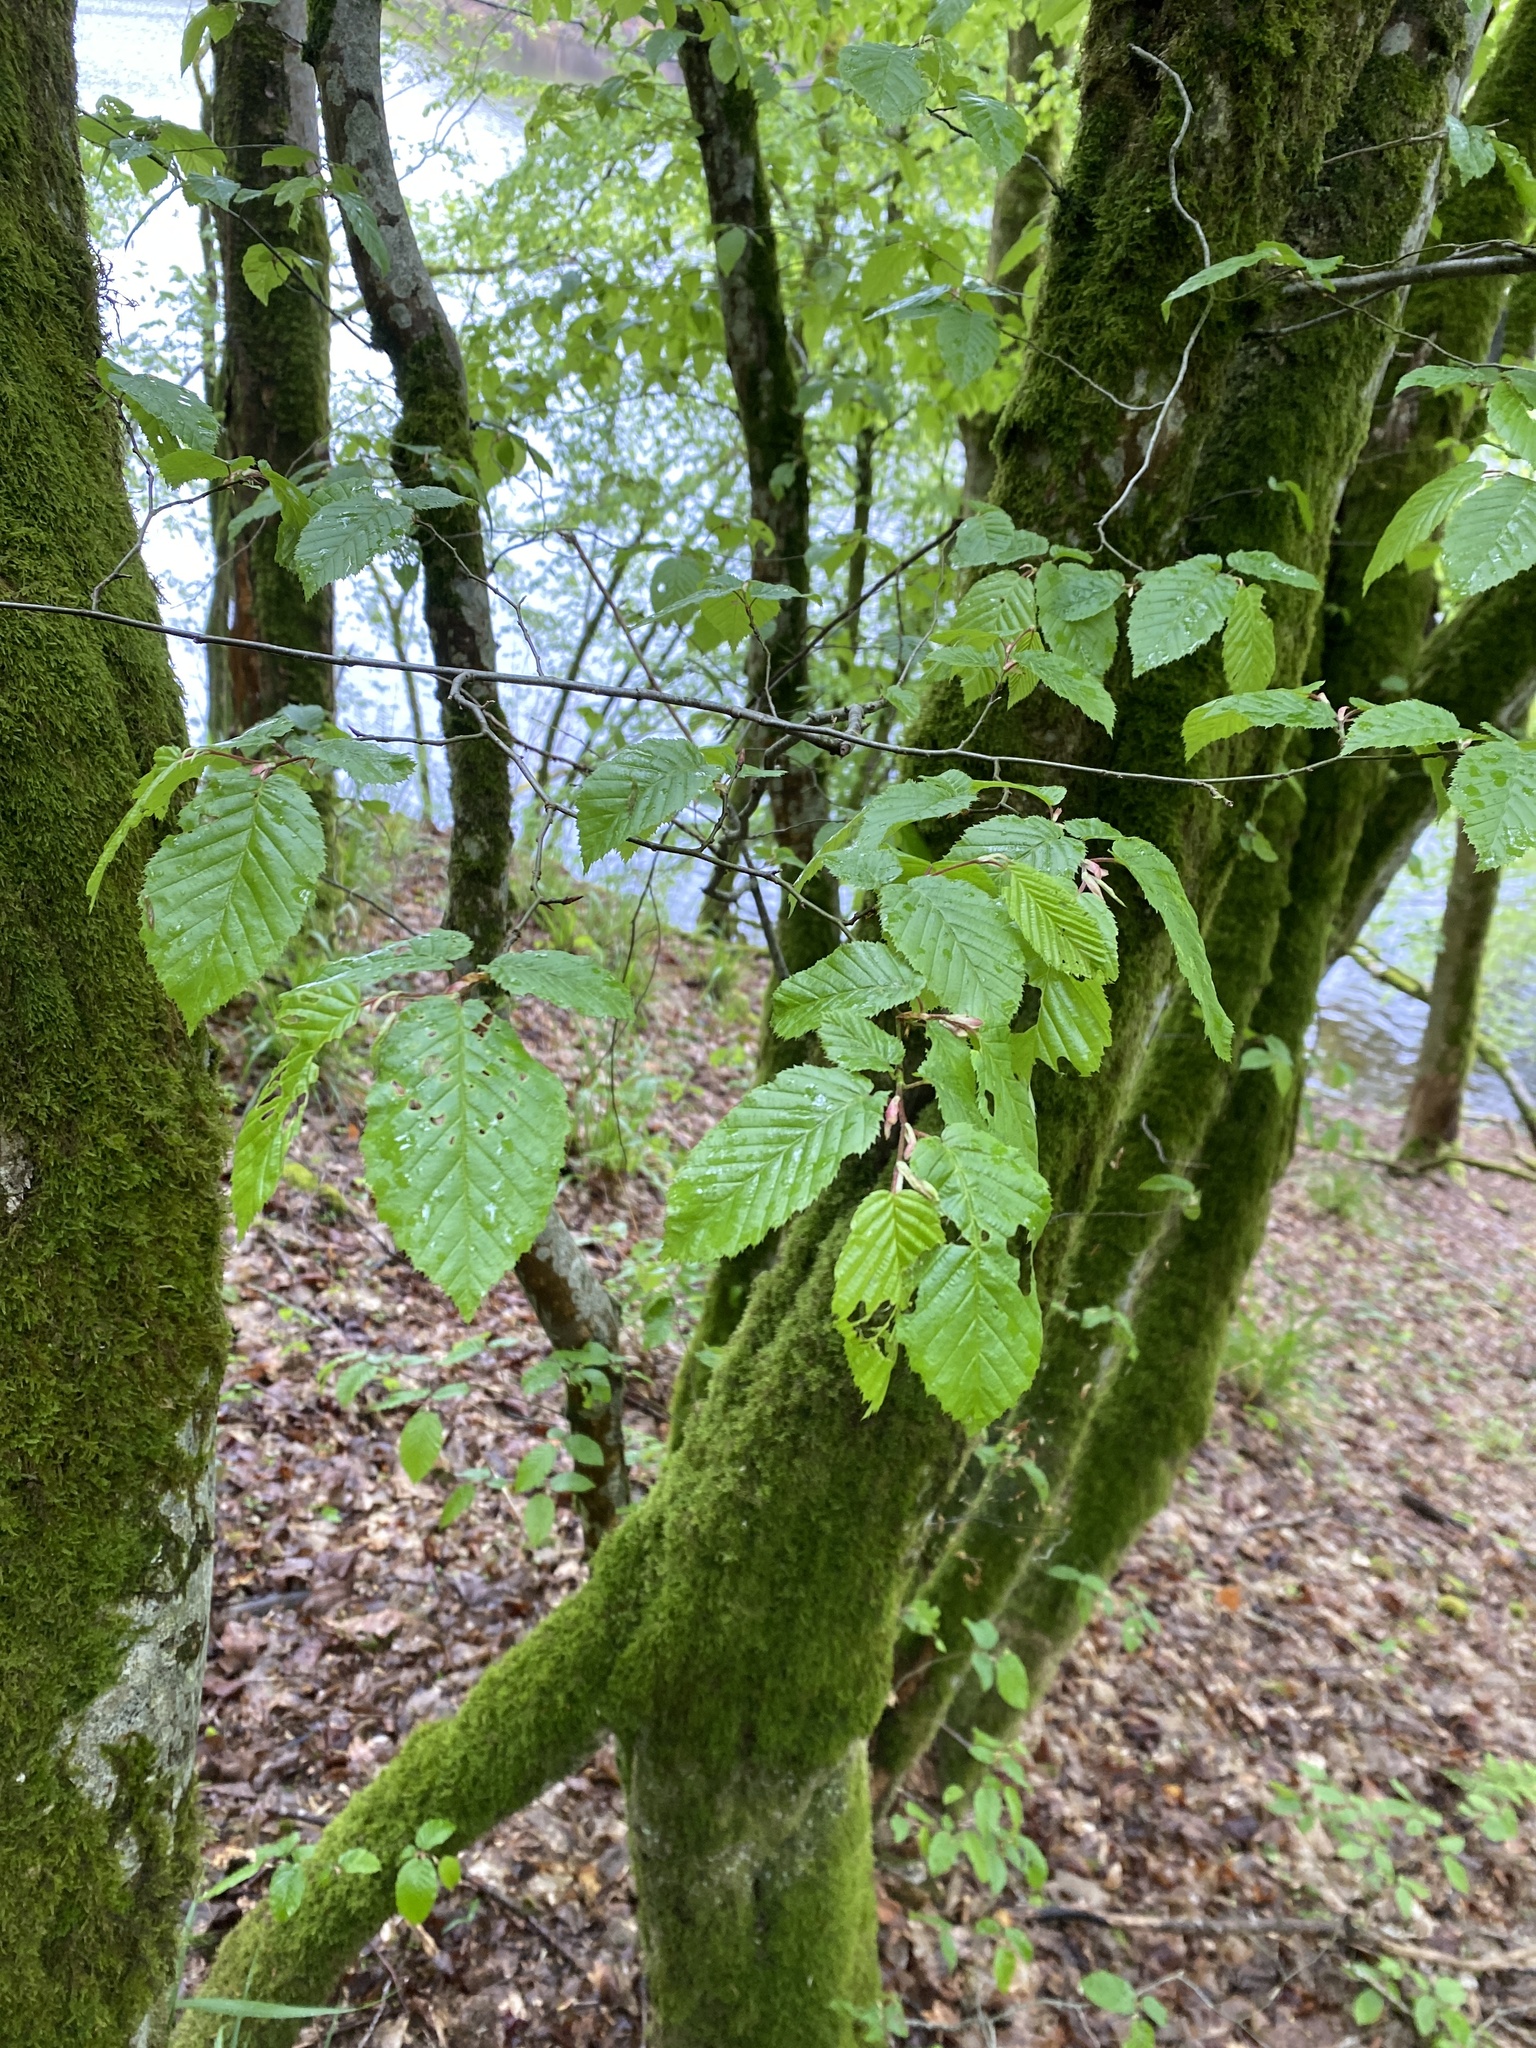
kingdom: Plantae
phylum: Tracheophyta
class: Magnoliopsida
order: Fagales
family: Betulaceae
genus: Carpinus
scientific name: Carpinus betulus
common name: Hornbeam
